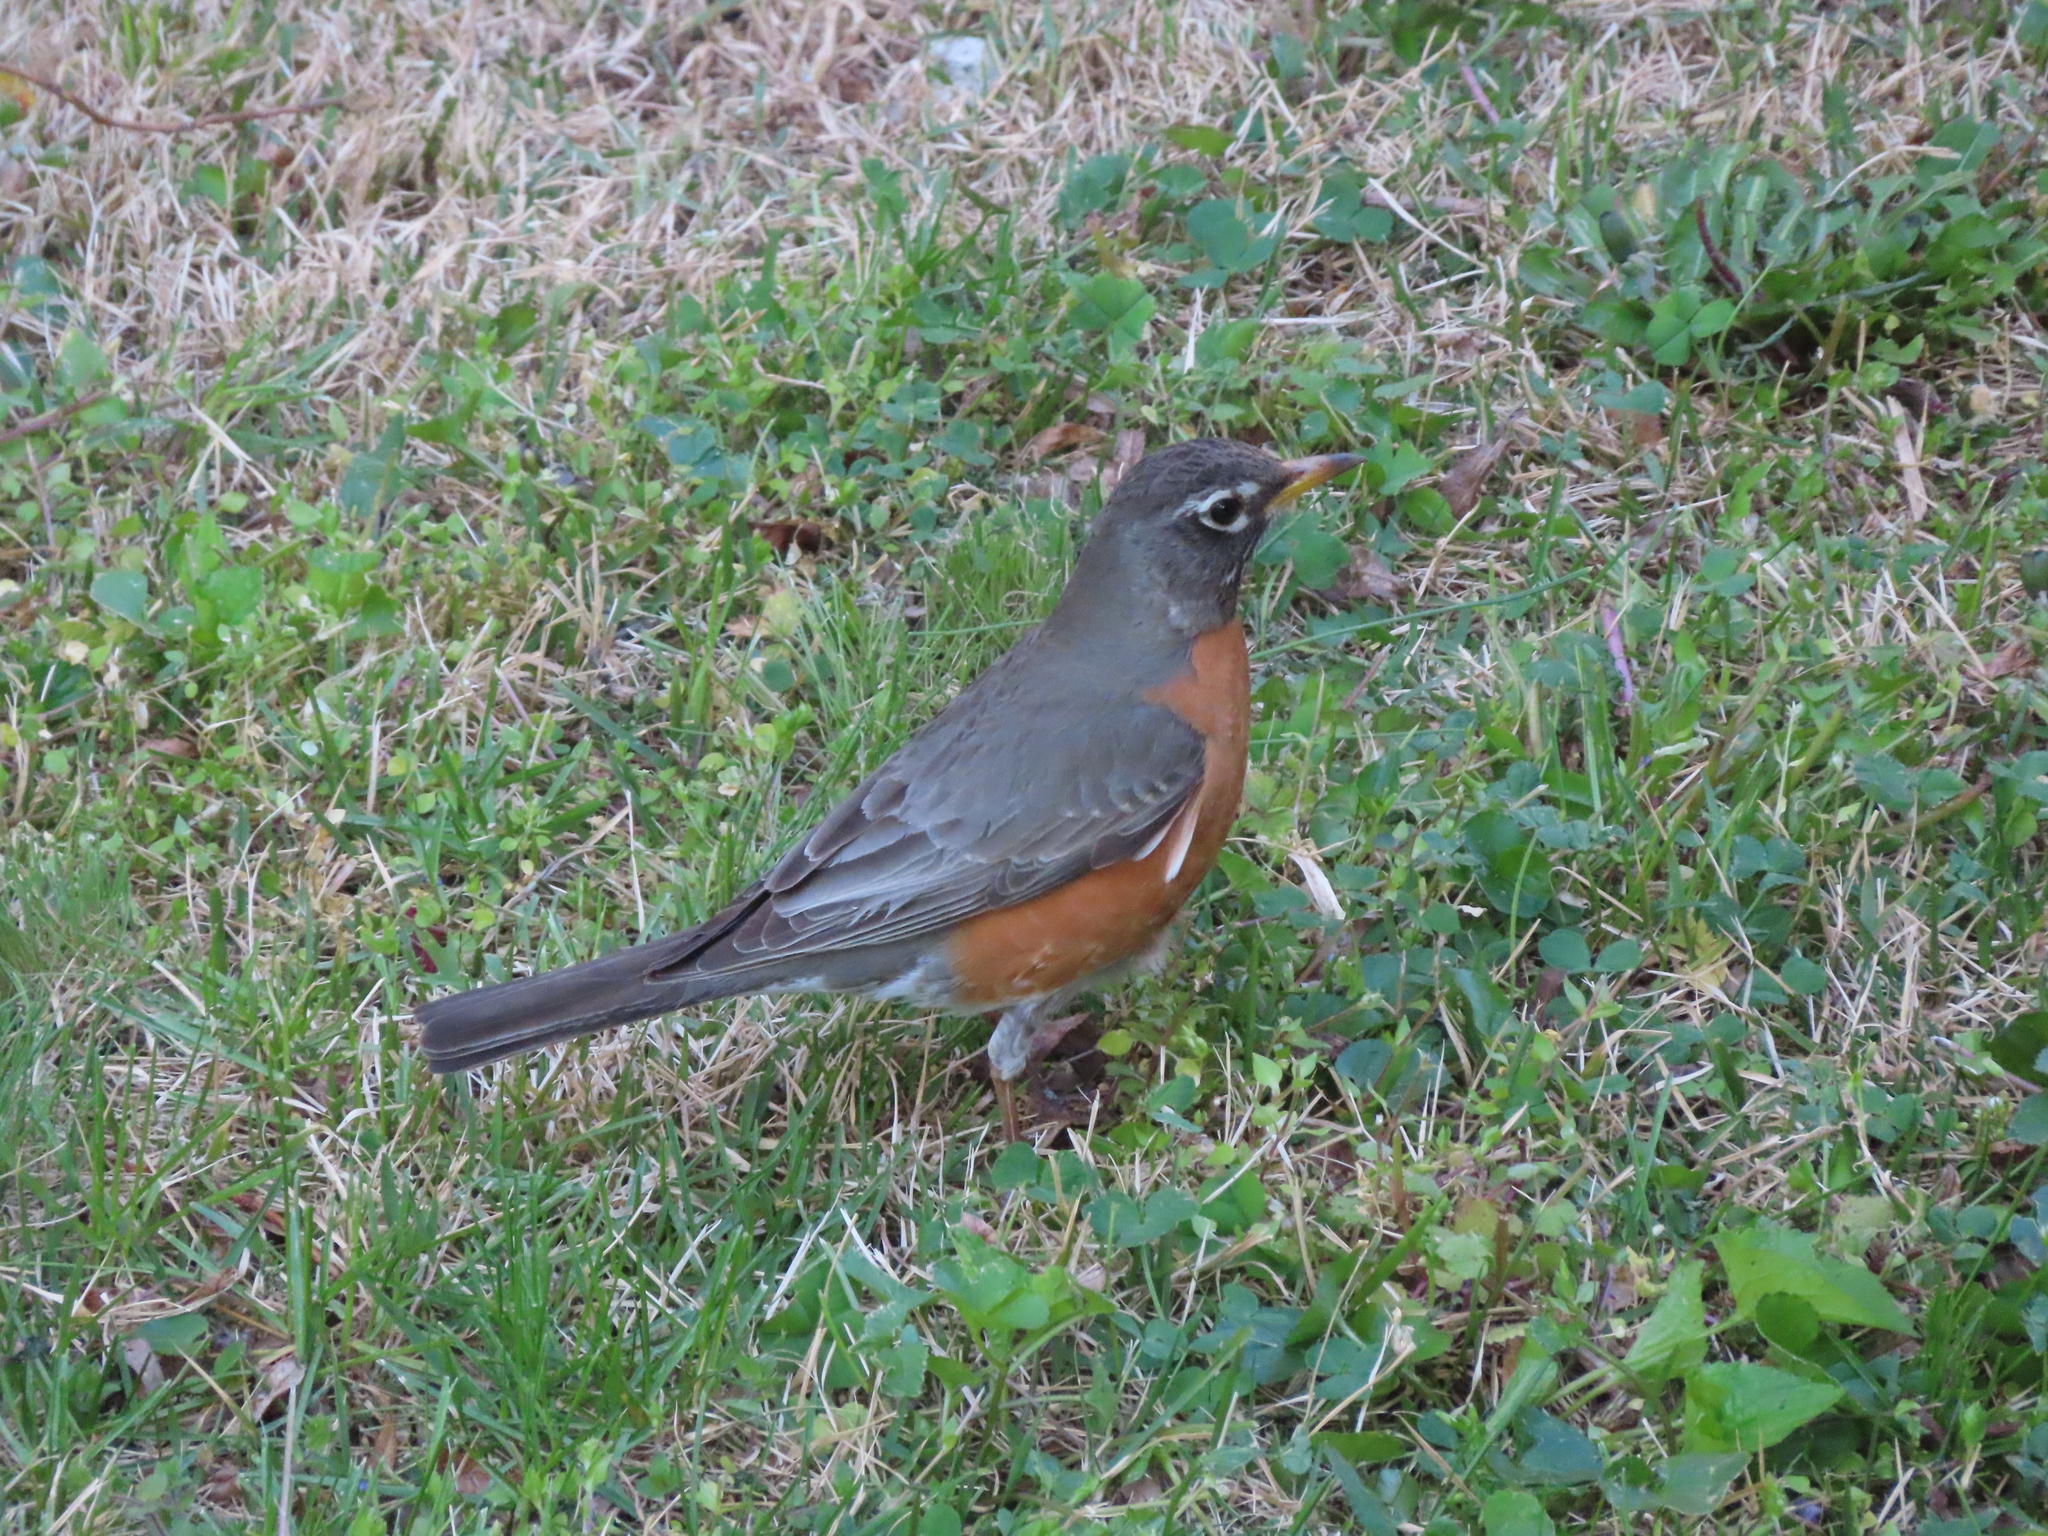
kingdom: Animalia
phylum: Chordata
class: Aves
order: Passeriformes
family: Turdidae
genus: Turdus
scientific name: Turdus migratorius
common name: American robin
